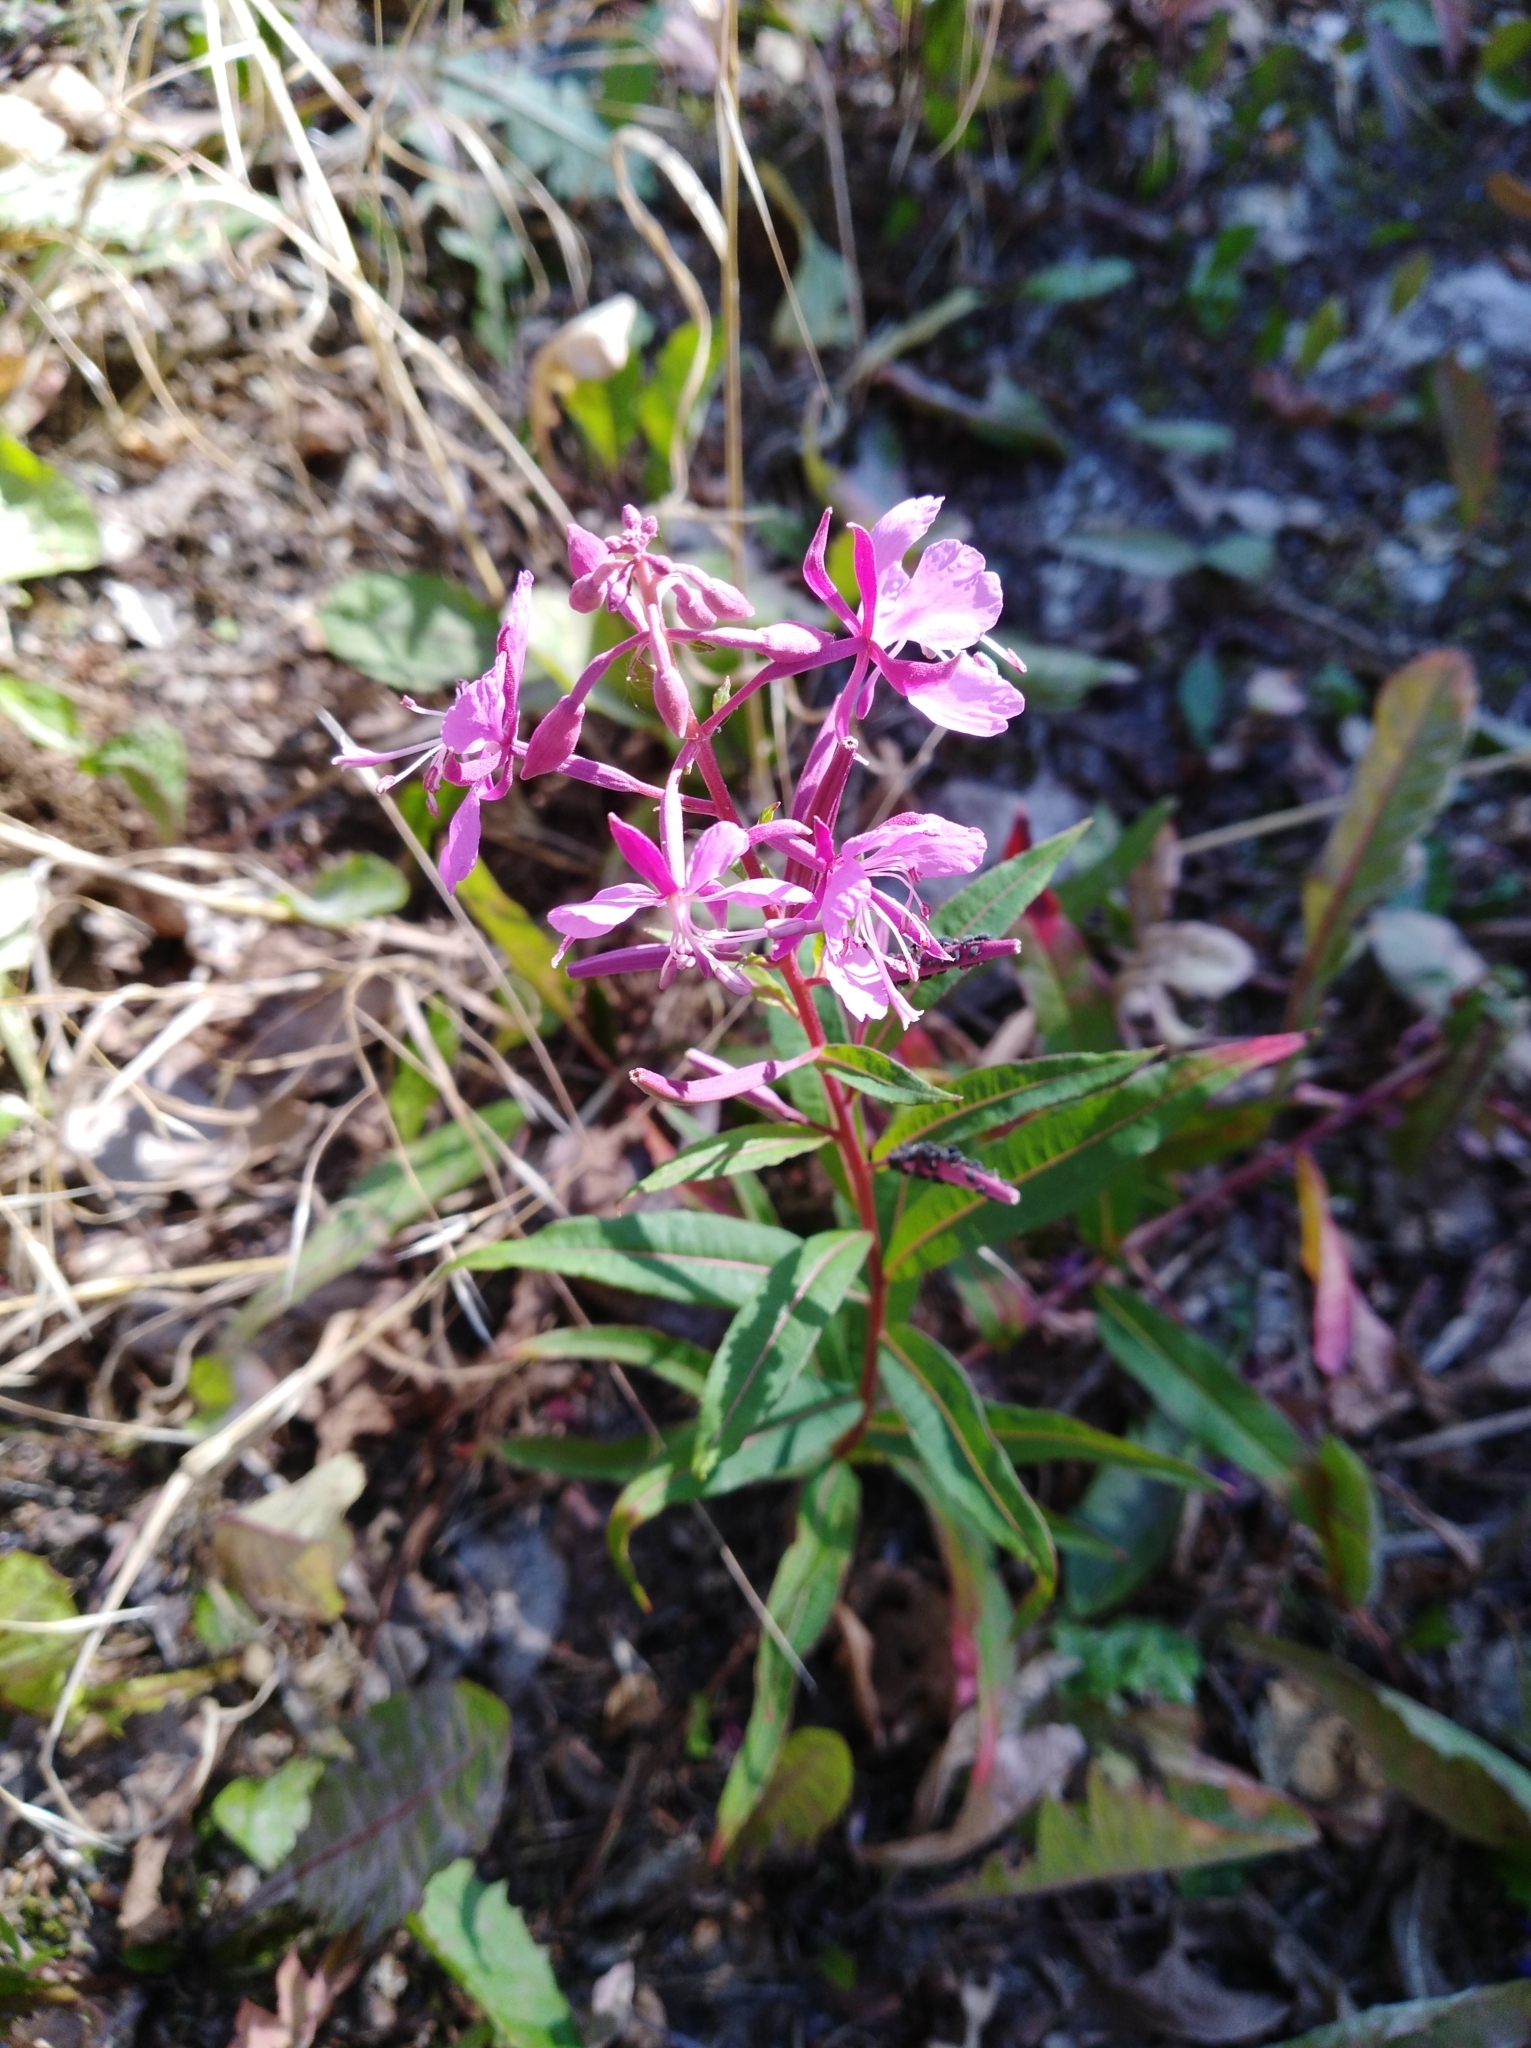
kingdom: Plantae
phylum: Tracheophyta
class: Magnoliopsida
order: Myrtales
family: Onagraceae
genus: Chamaenerion
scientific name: Chamaenerion angustifolium
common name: Fireweed
